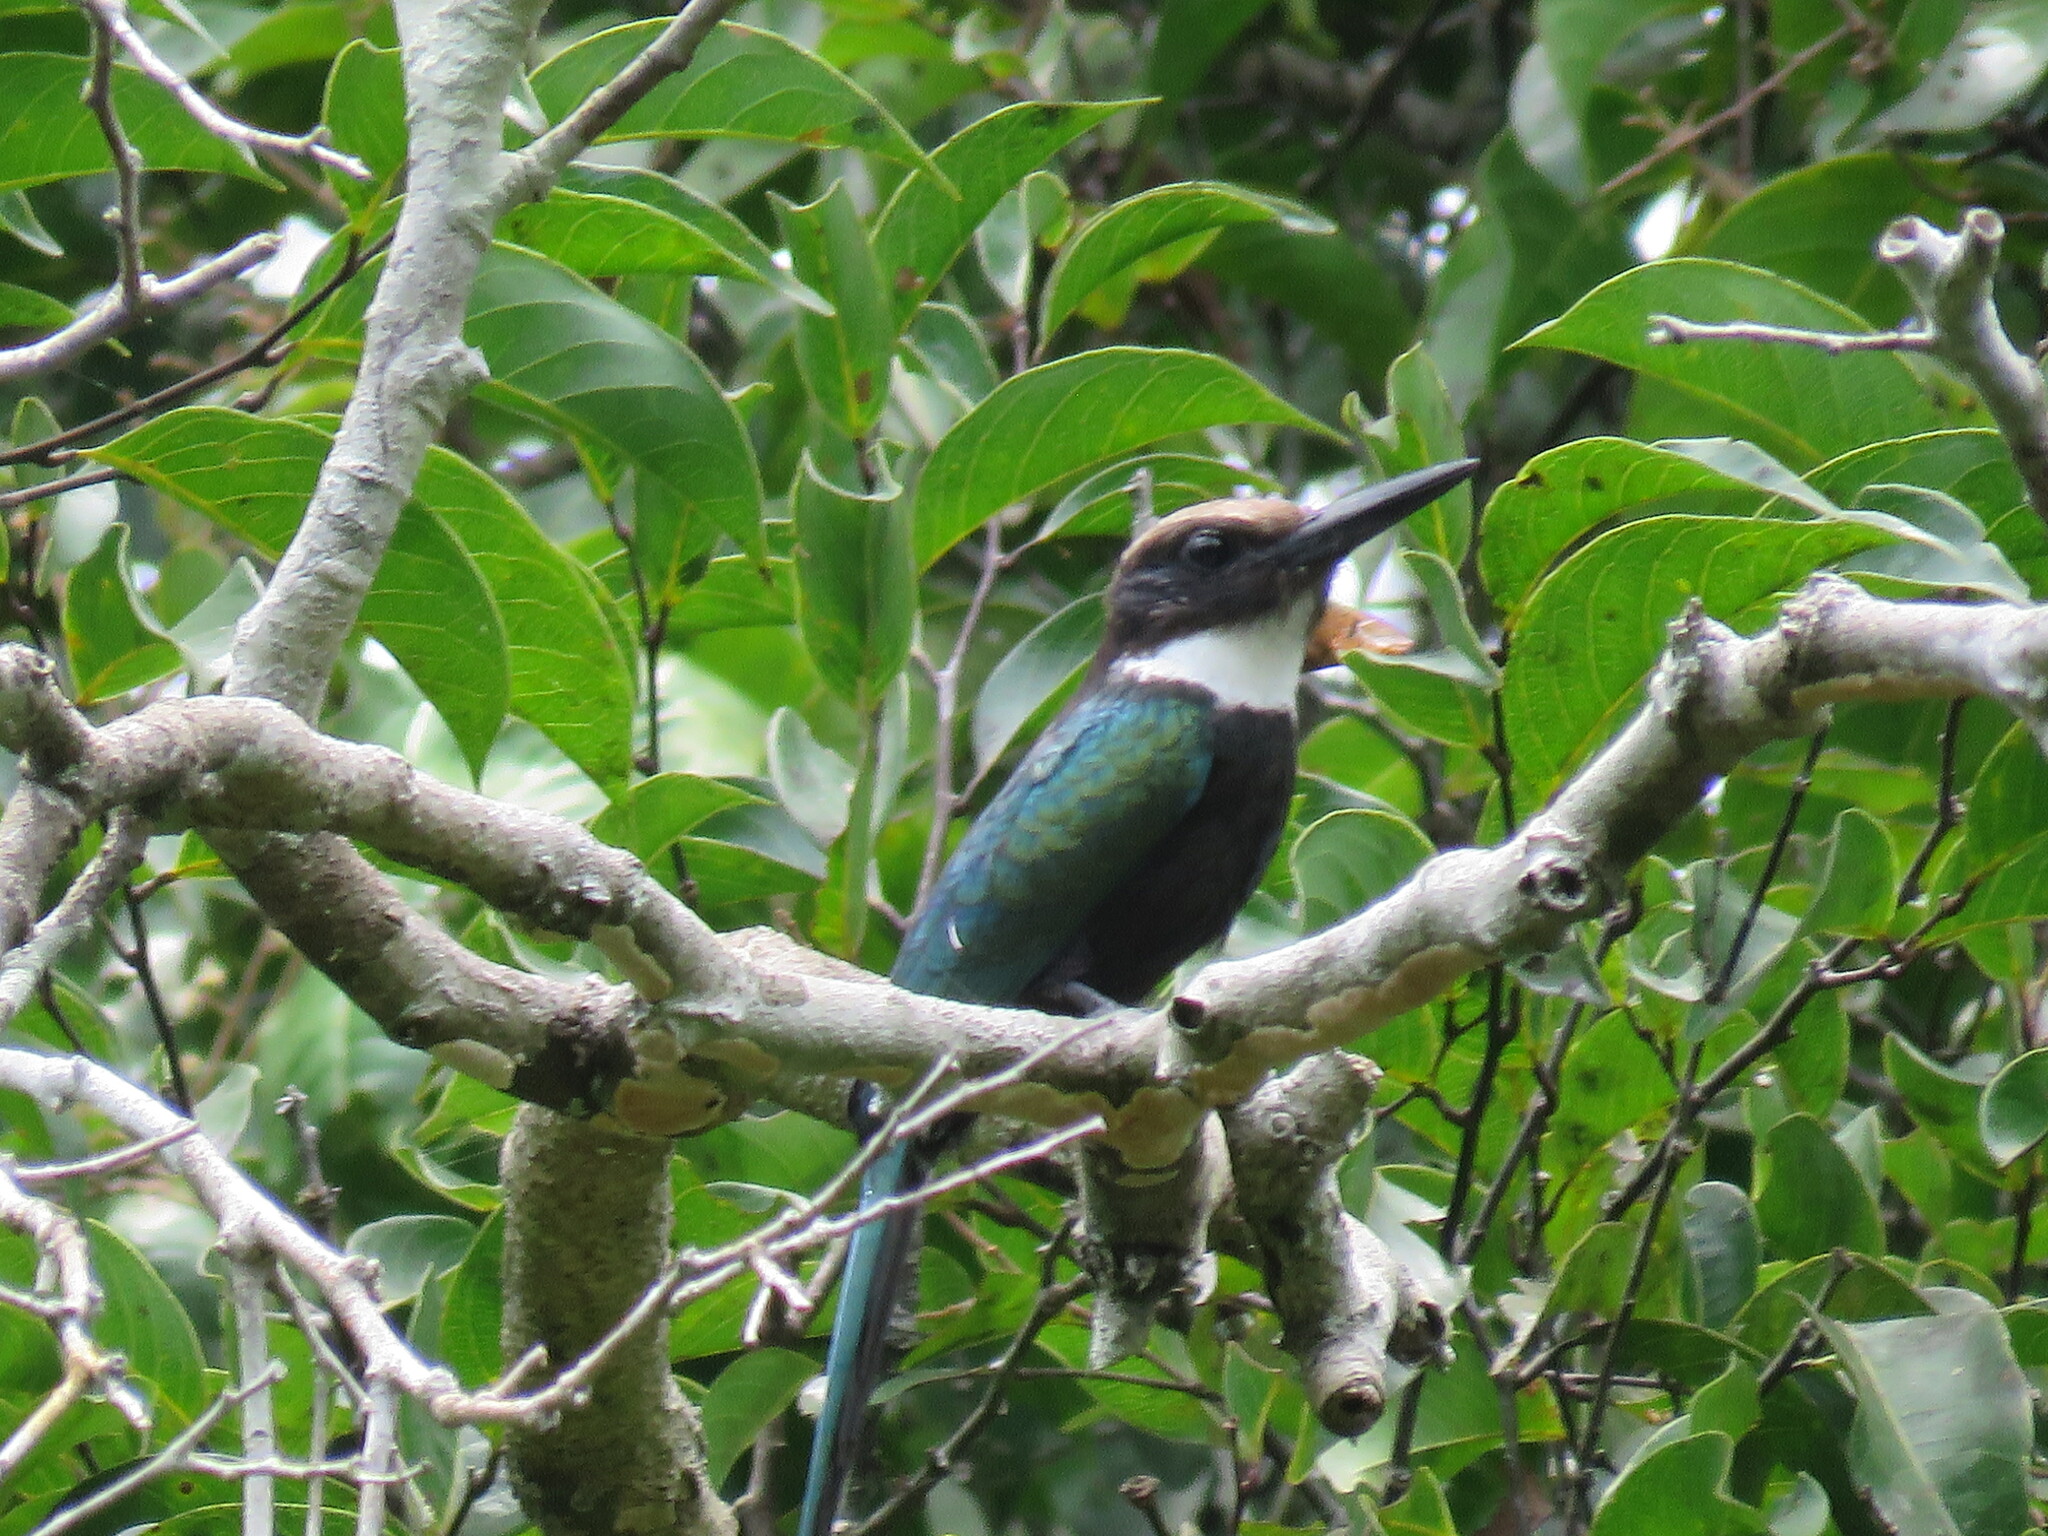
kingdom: Animalia
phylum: Chordata
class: Aves
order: Piciformes
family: Galbulidae
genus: Galbula
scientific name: Galbula dea
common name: Paradise jacamar
